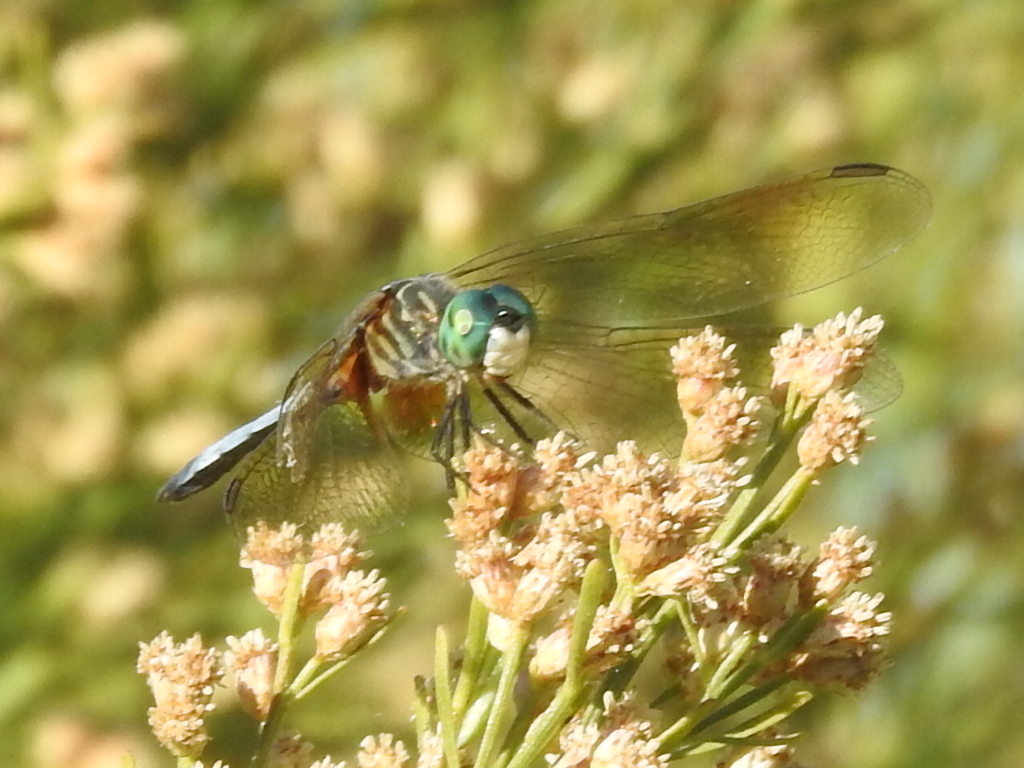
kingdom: Animalia
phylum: Arthropoda
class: Insecta
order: Odonata
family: Libellulidae
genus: Pachydiplax
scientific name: Pachydiplax longipennis
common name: Blue dasher
